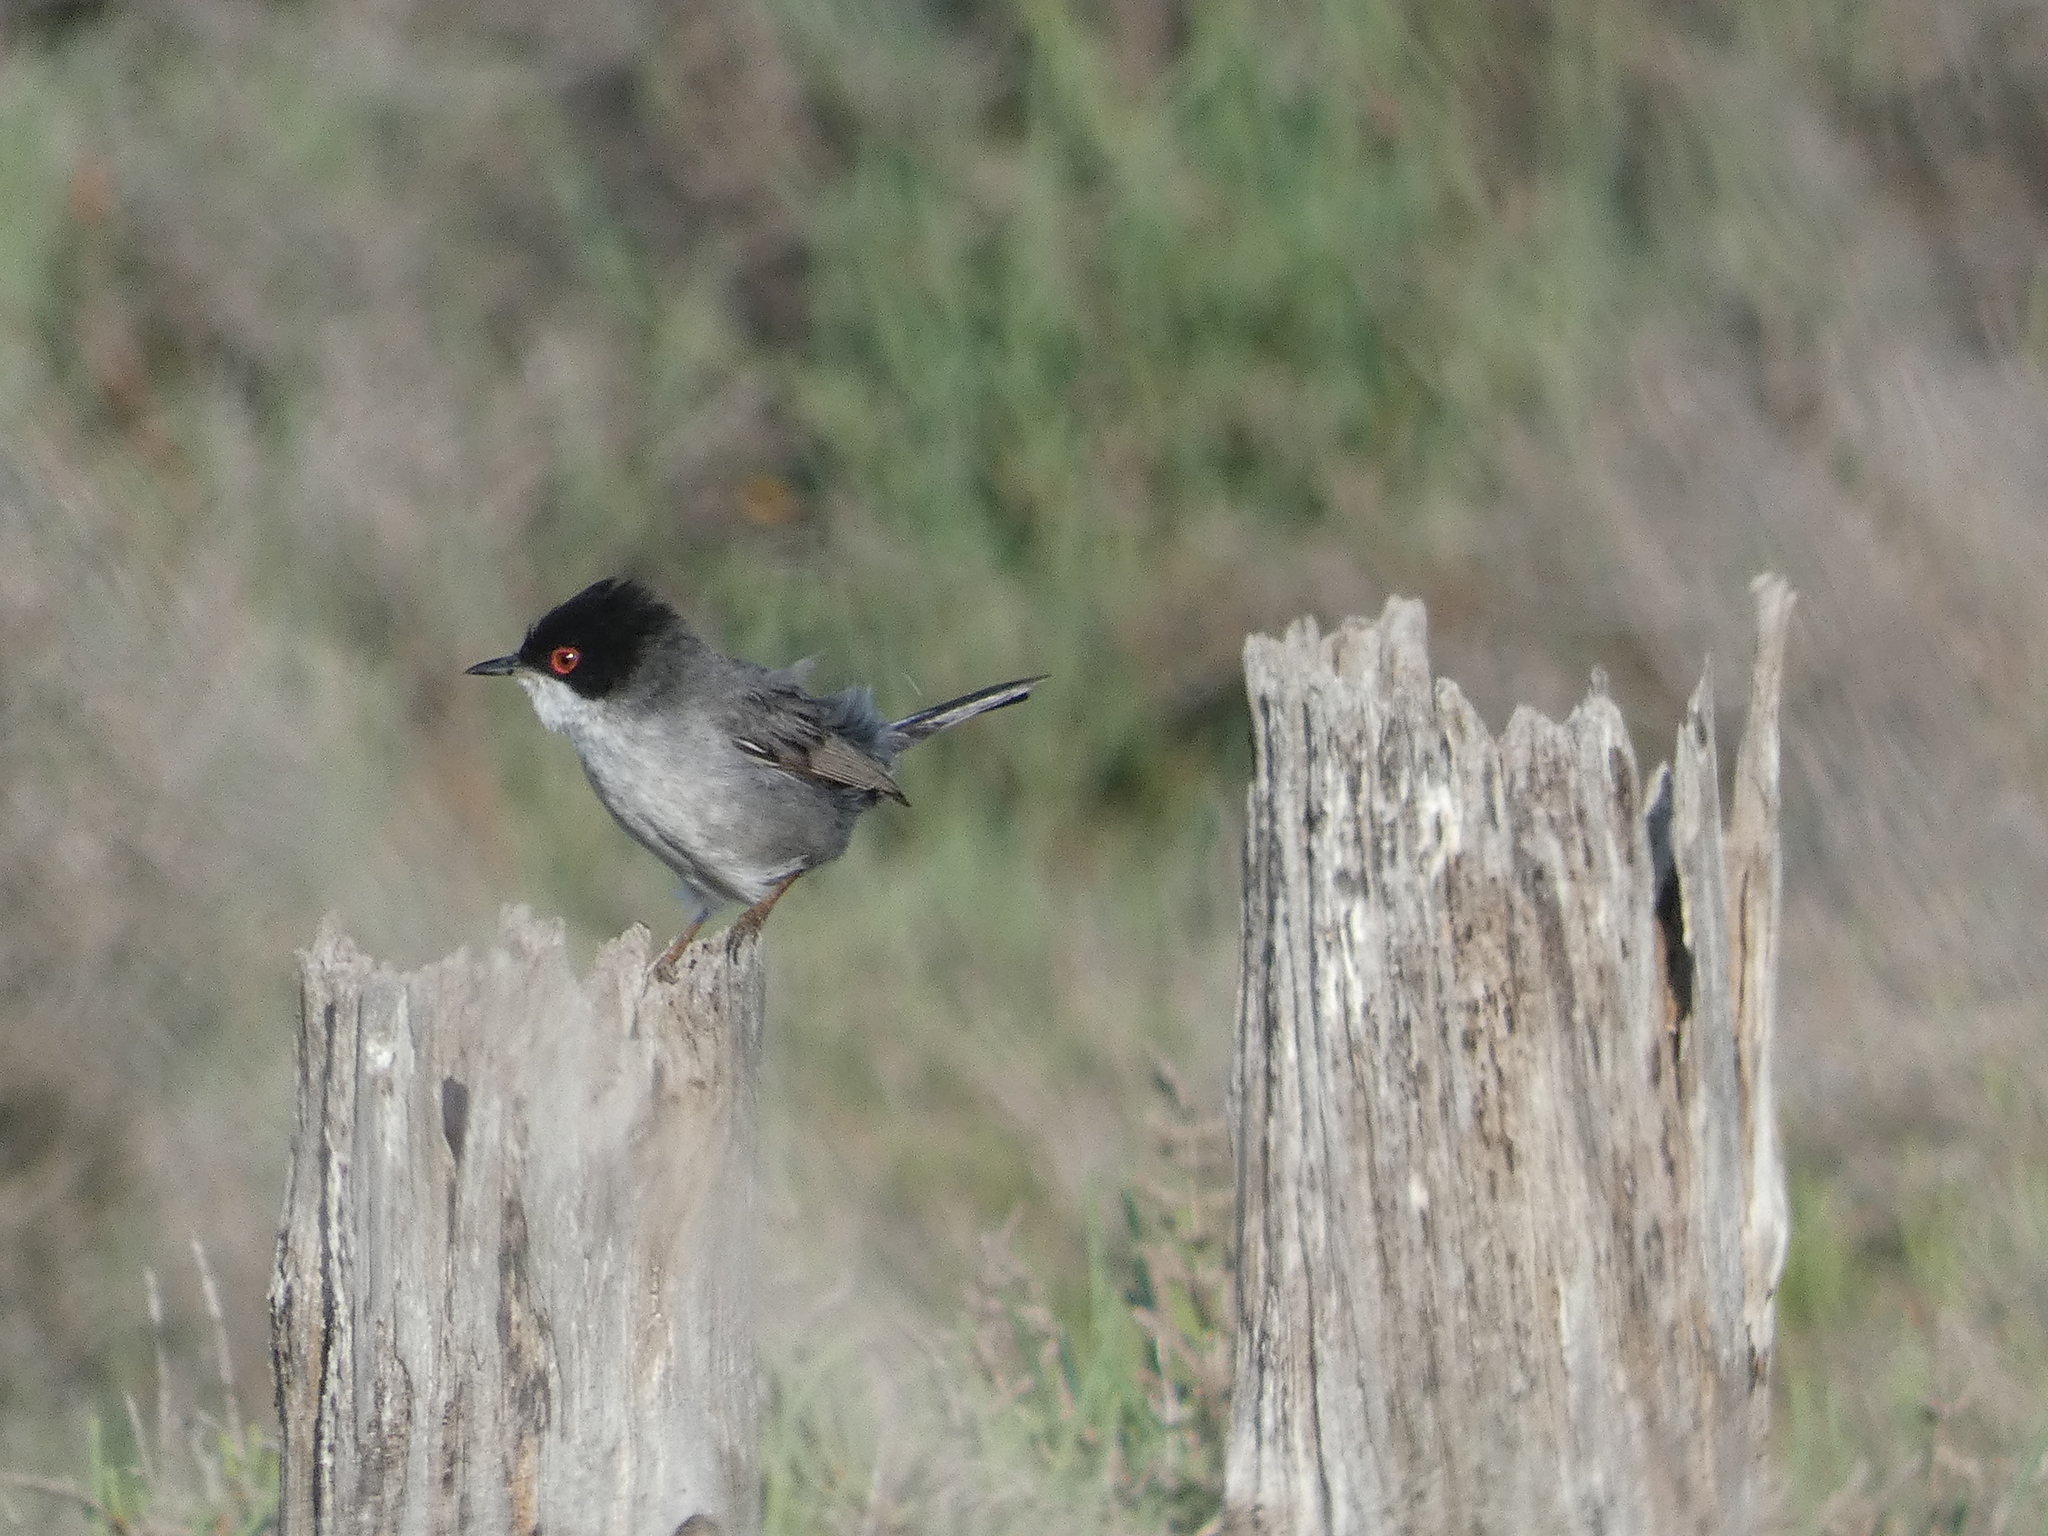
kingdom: Animalia
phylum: Chordata
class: Aves
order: Passeriformes
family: Sylviidae
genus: Curruca
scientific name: Curruca melanocephala
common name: Sardinian warbler
